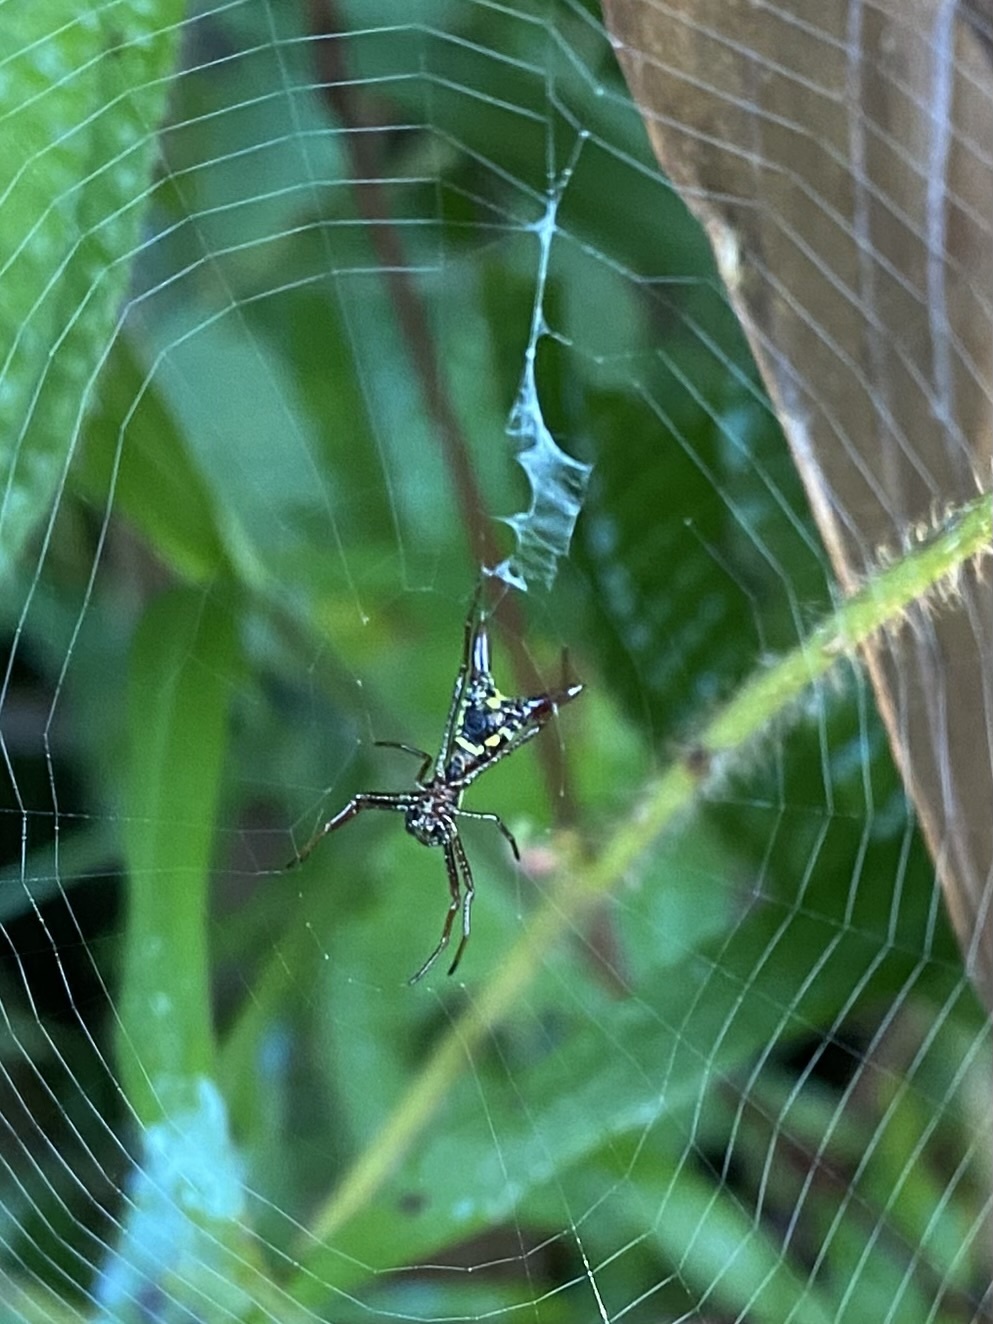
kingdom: Animalia
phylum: Arthropoda
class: Arachnida
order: Araneae
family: Araneidae
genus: Micrathena
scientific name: Micrathena sexspinosa
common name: Orb weavers
